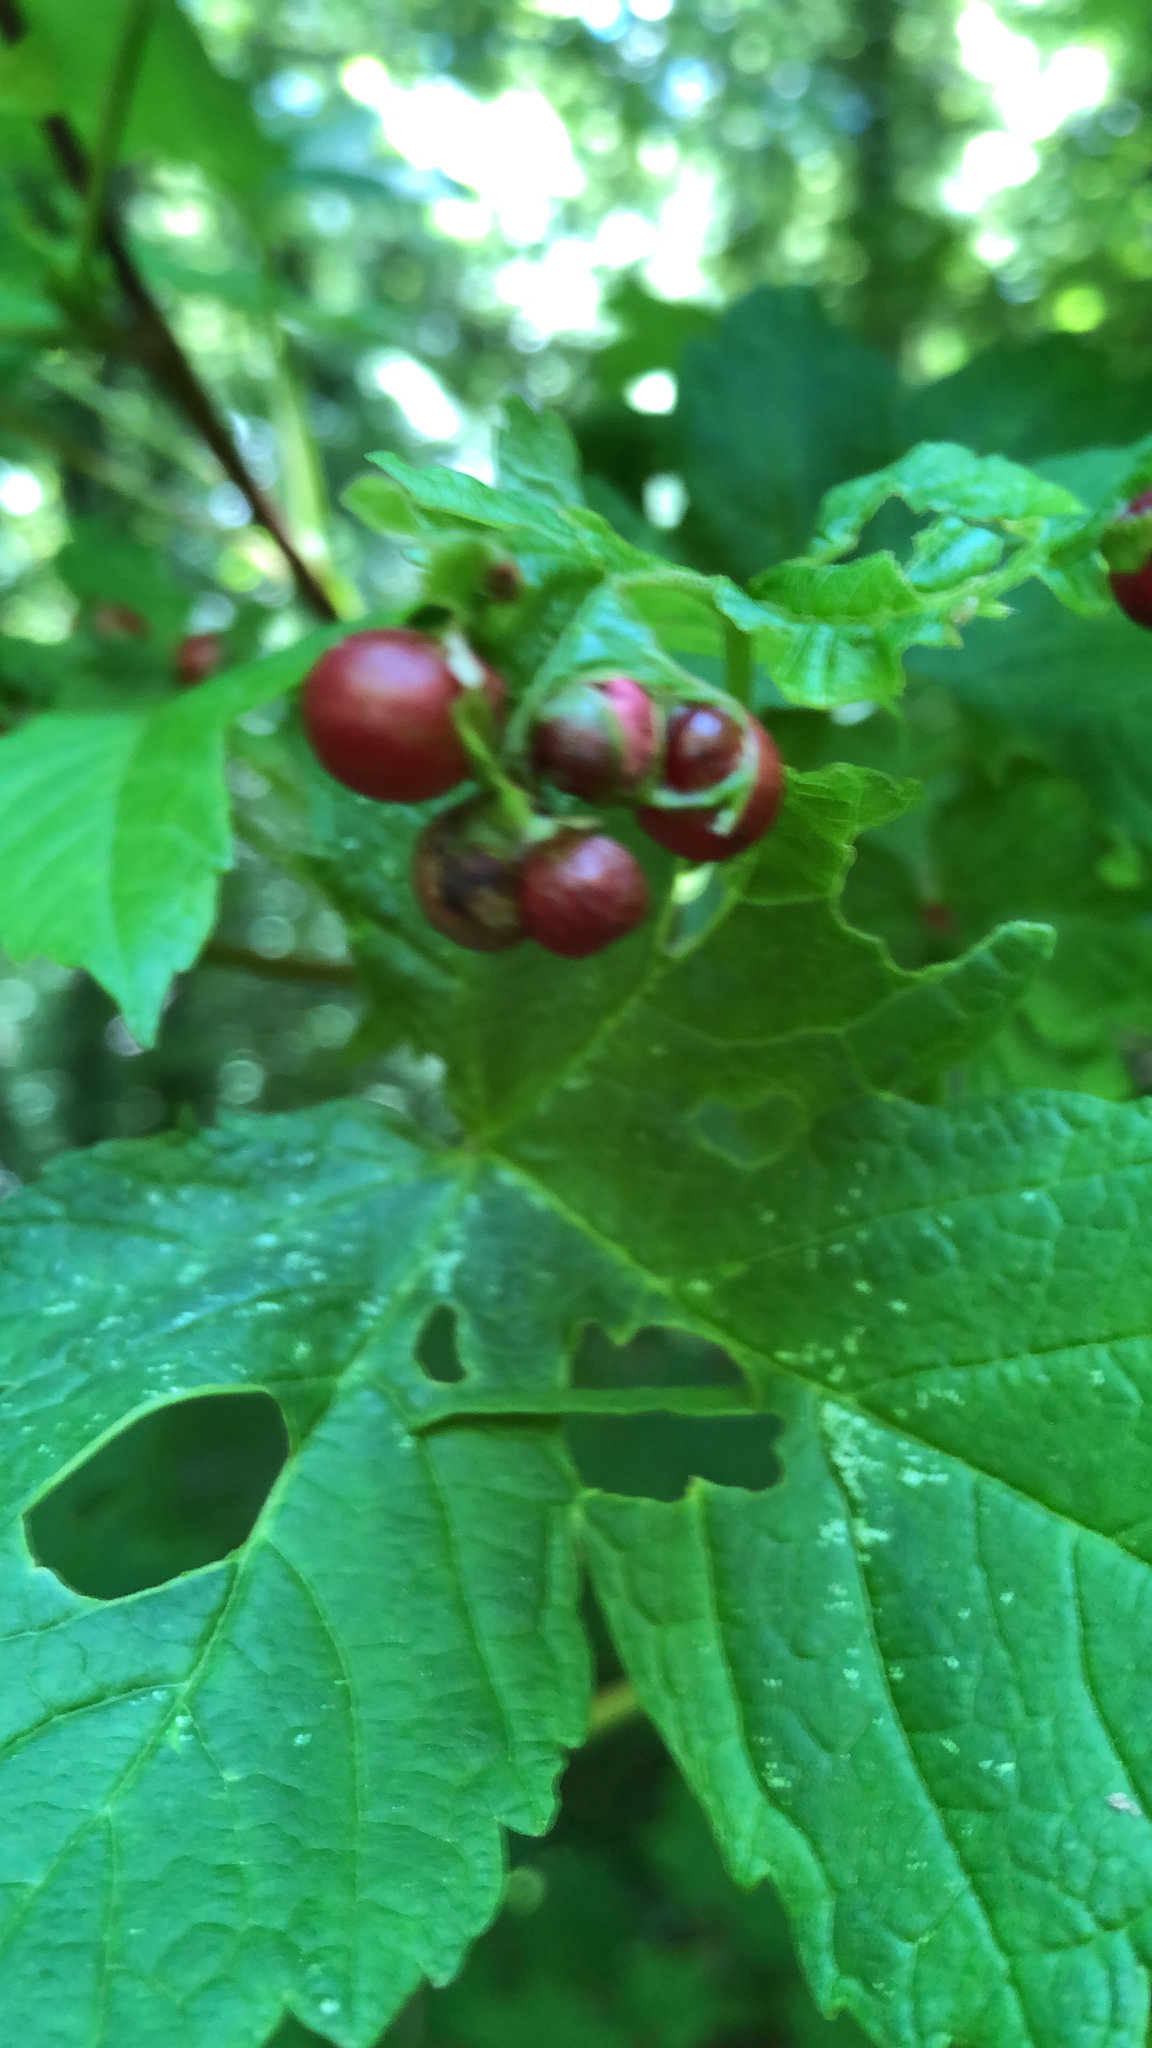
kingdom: Plantae
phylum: Tracheophyta
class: Magnoliopsida
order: Dipsacales
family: Viburnaceae
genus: Viburnum
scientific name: Viburnum opulus
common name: Guelder-rose
